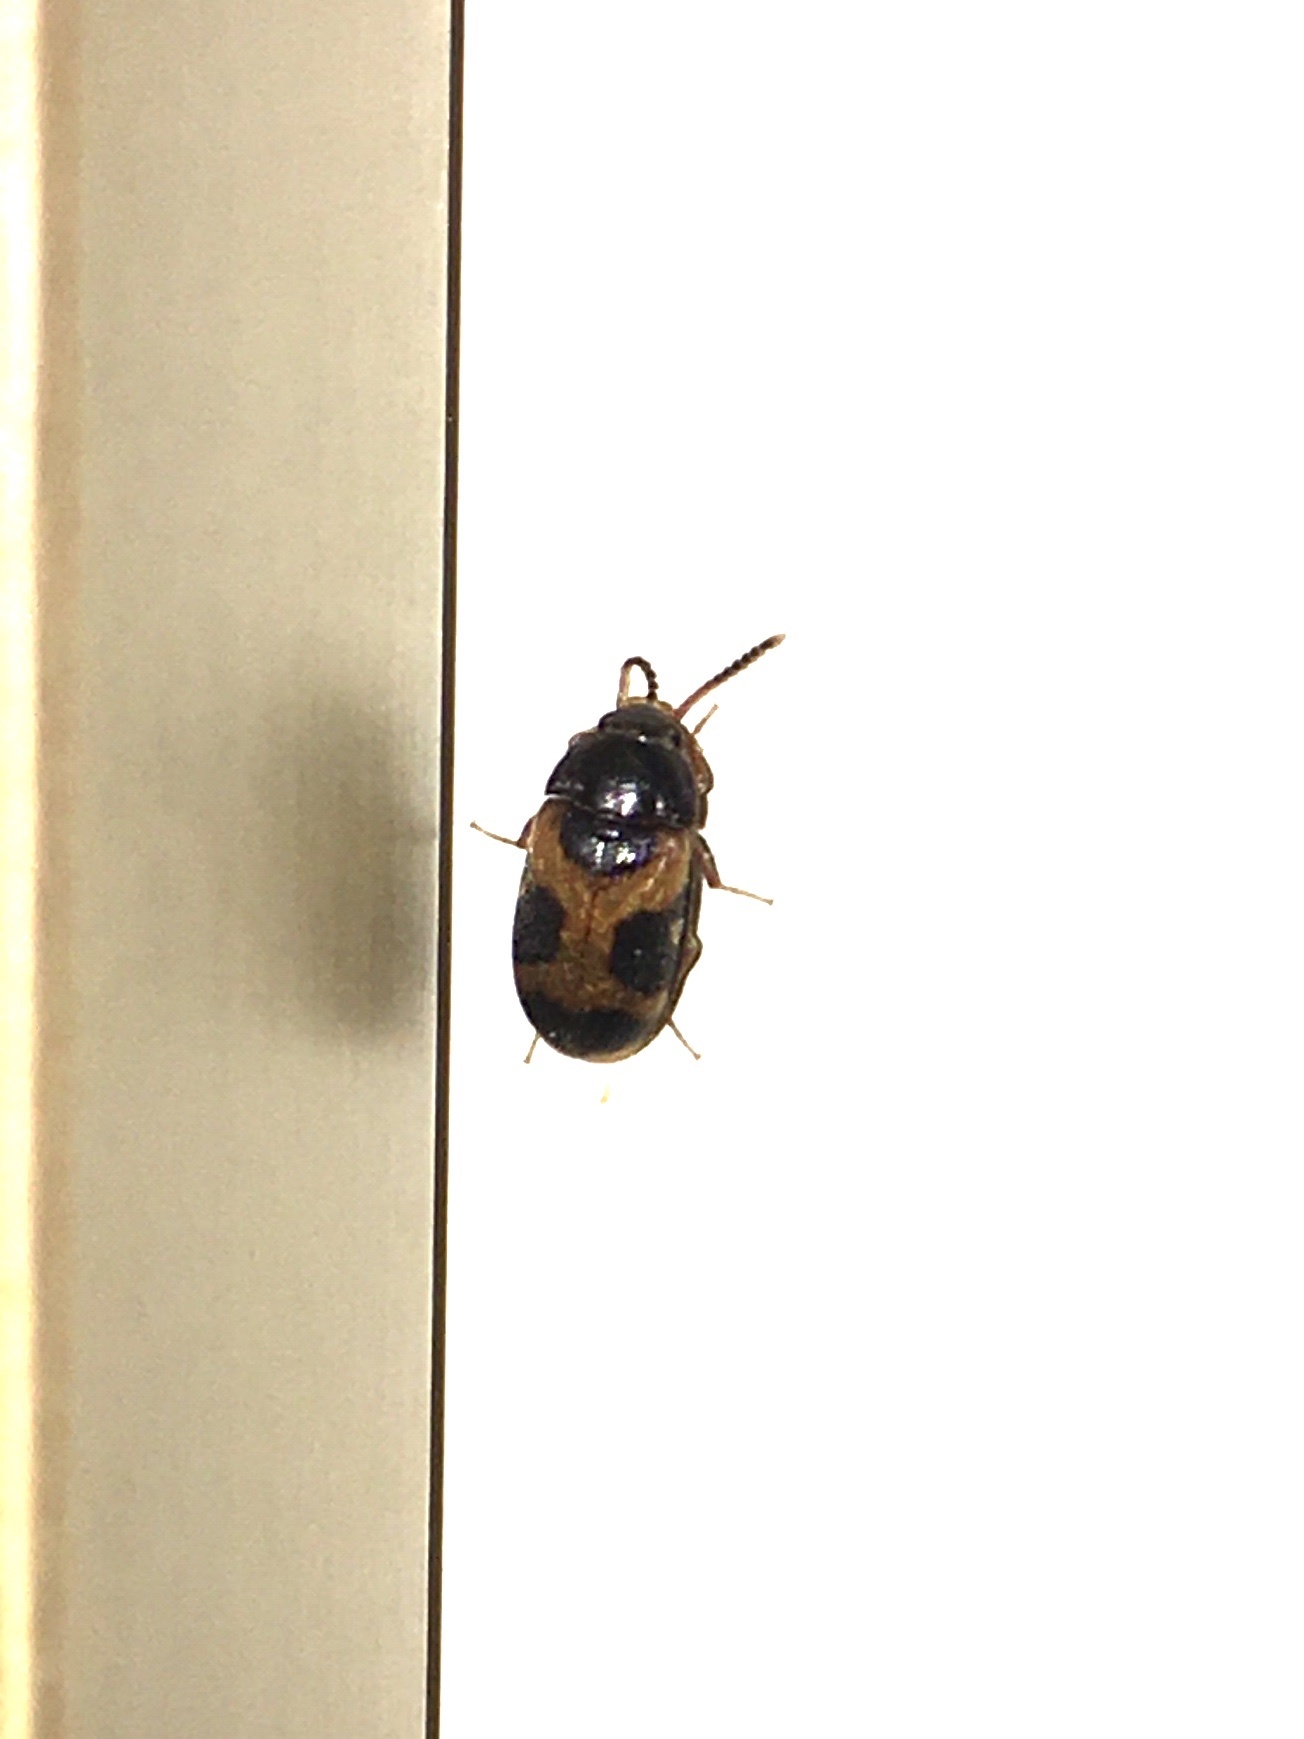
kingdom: Animalia
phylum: Arthropoda
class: Insecta
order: Coleoptera
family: Mycetophagidae
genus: Mycetophagus
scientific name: Mycetophagus punctatus
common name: Hairy fungus beetle
